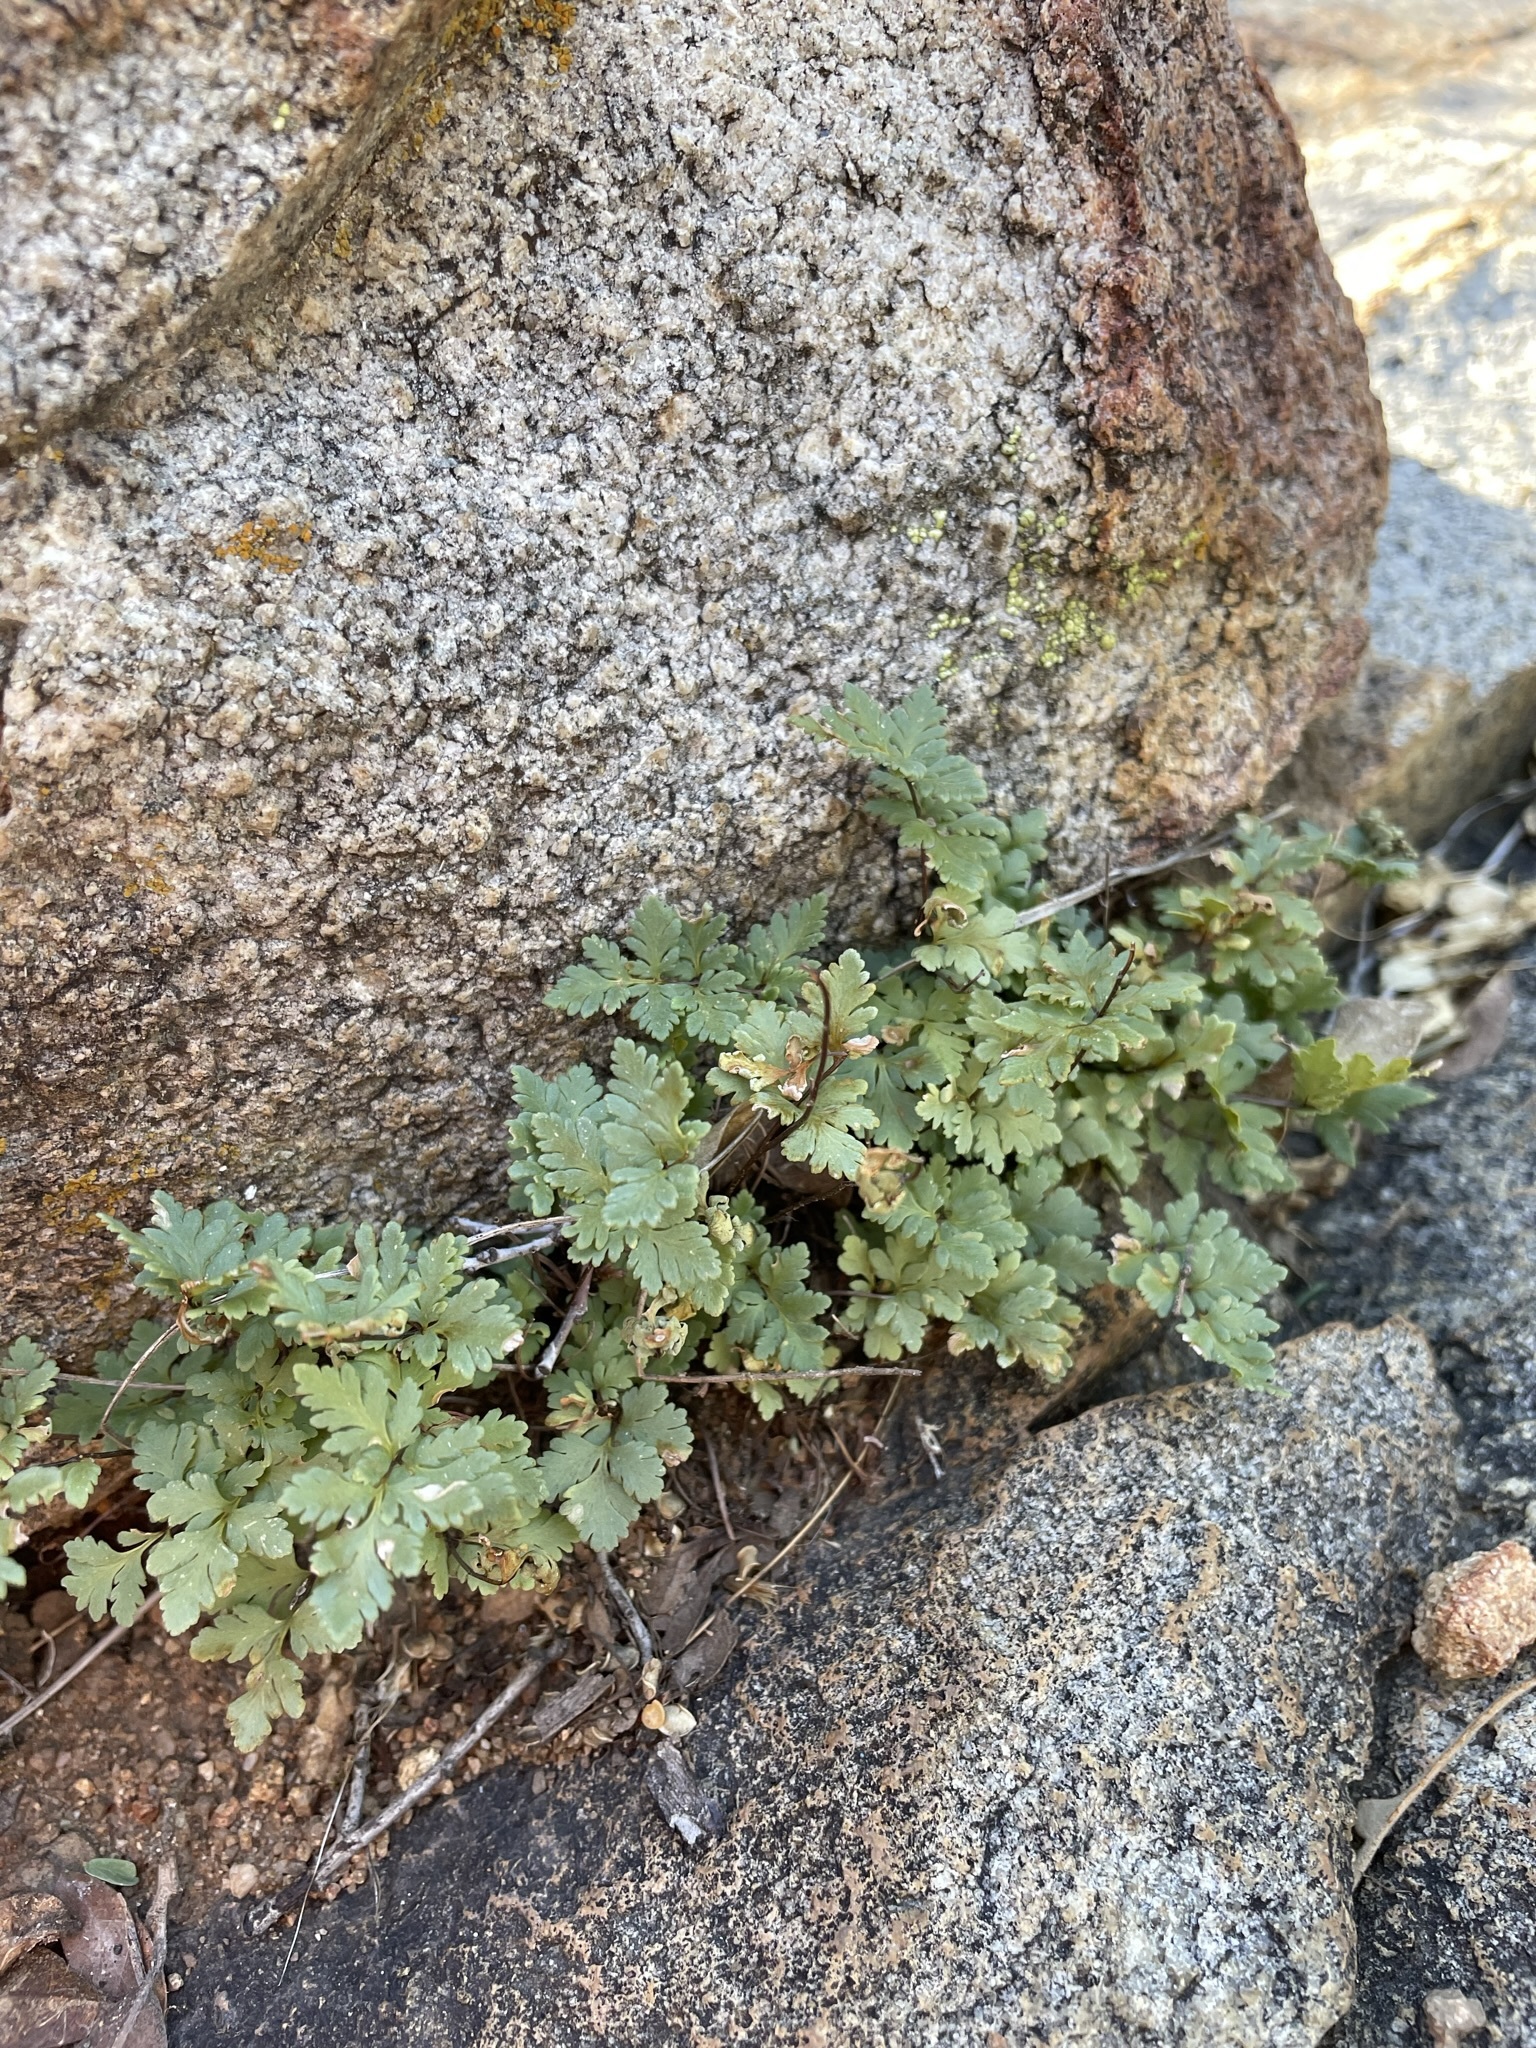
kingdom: Plantae
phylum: Tracheophyta
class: Polypodiopsida
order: Polypodiales
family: Pteridaceae
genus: Myriopteris
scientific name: Myriopteris wrightii
